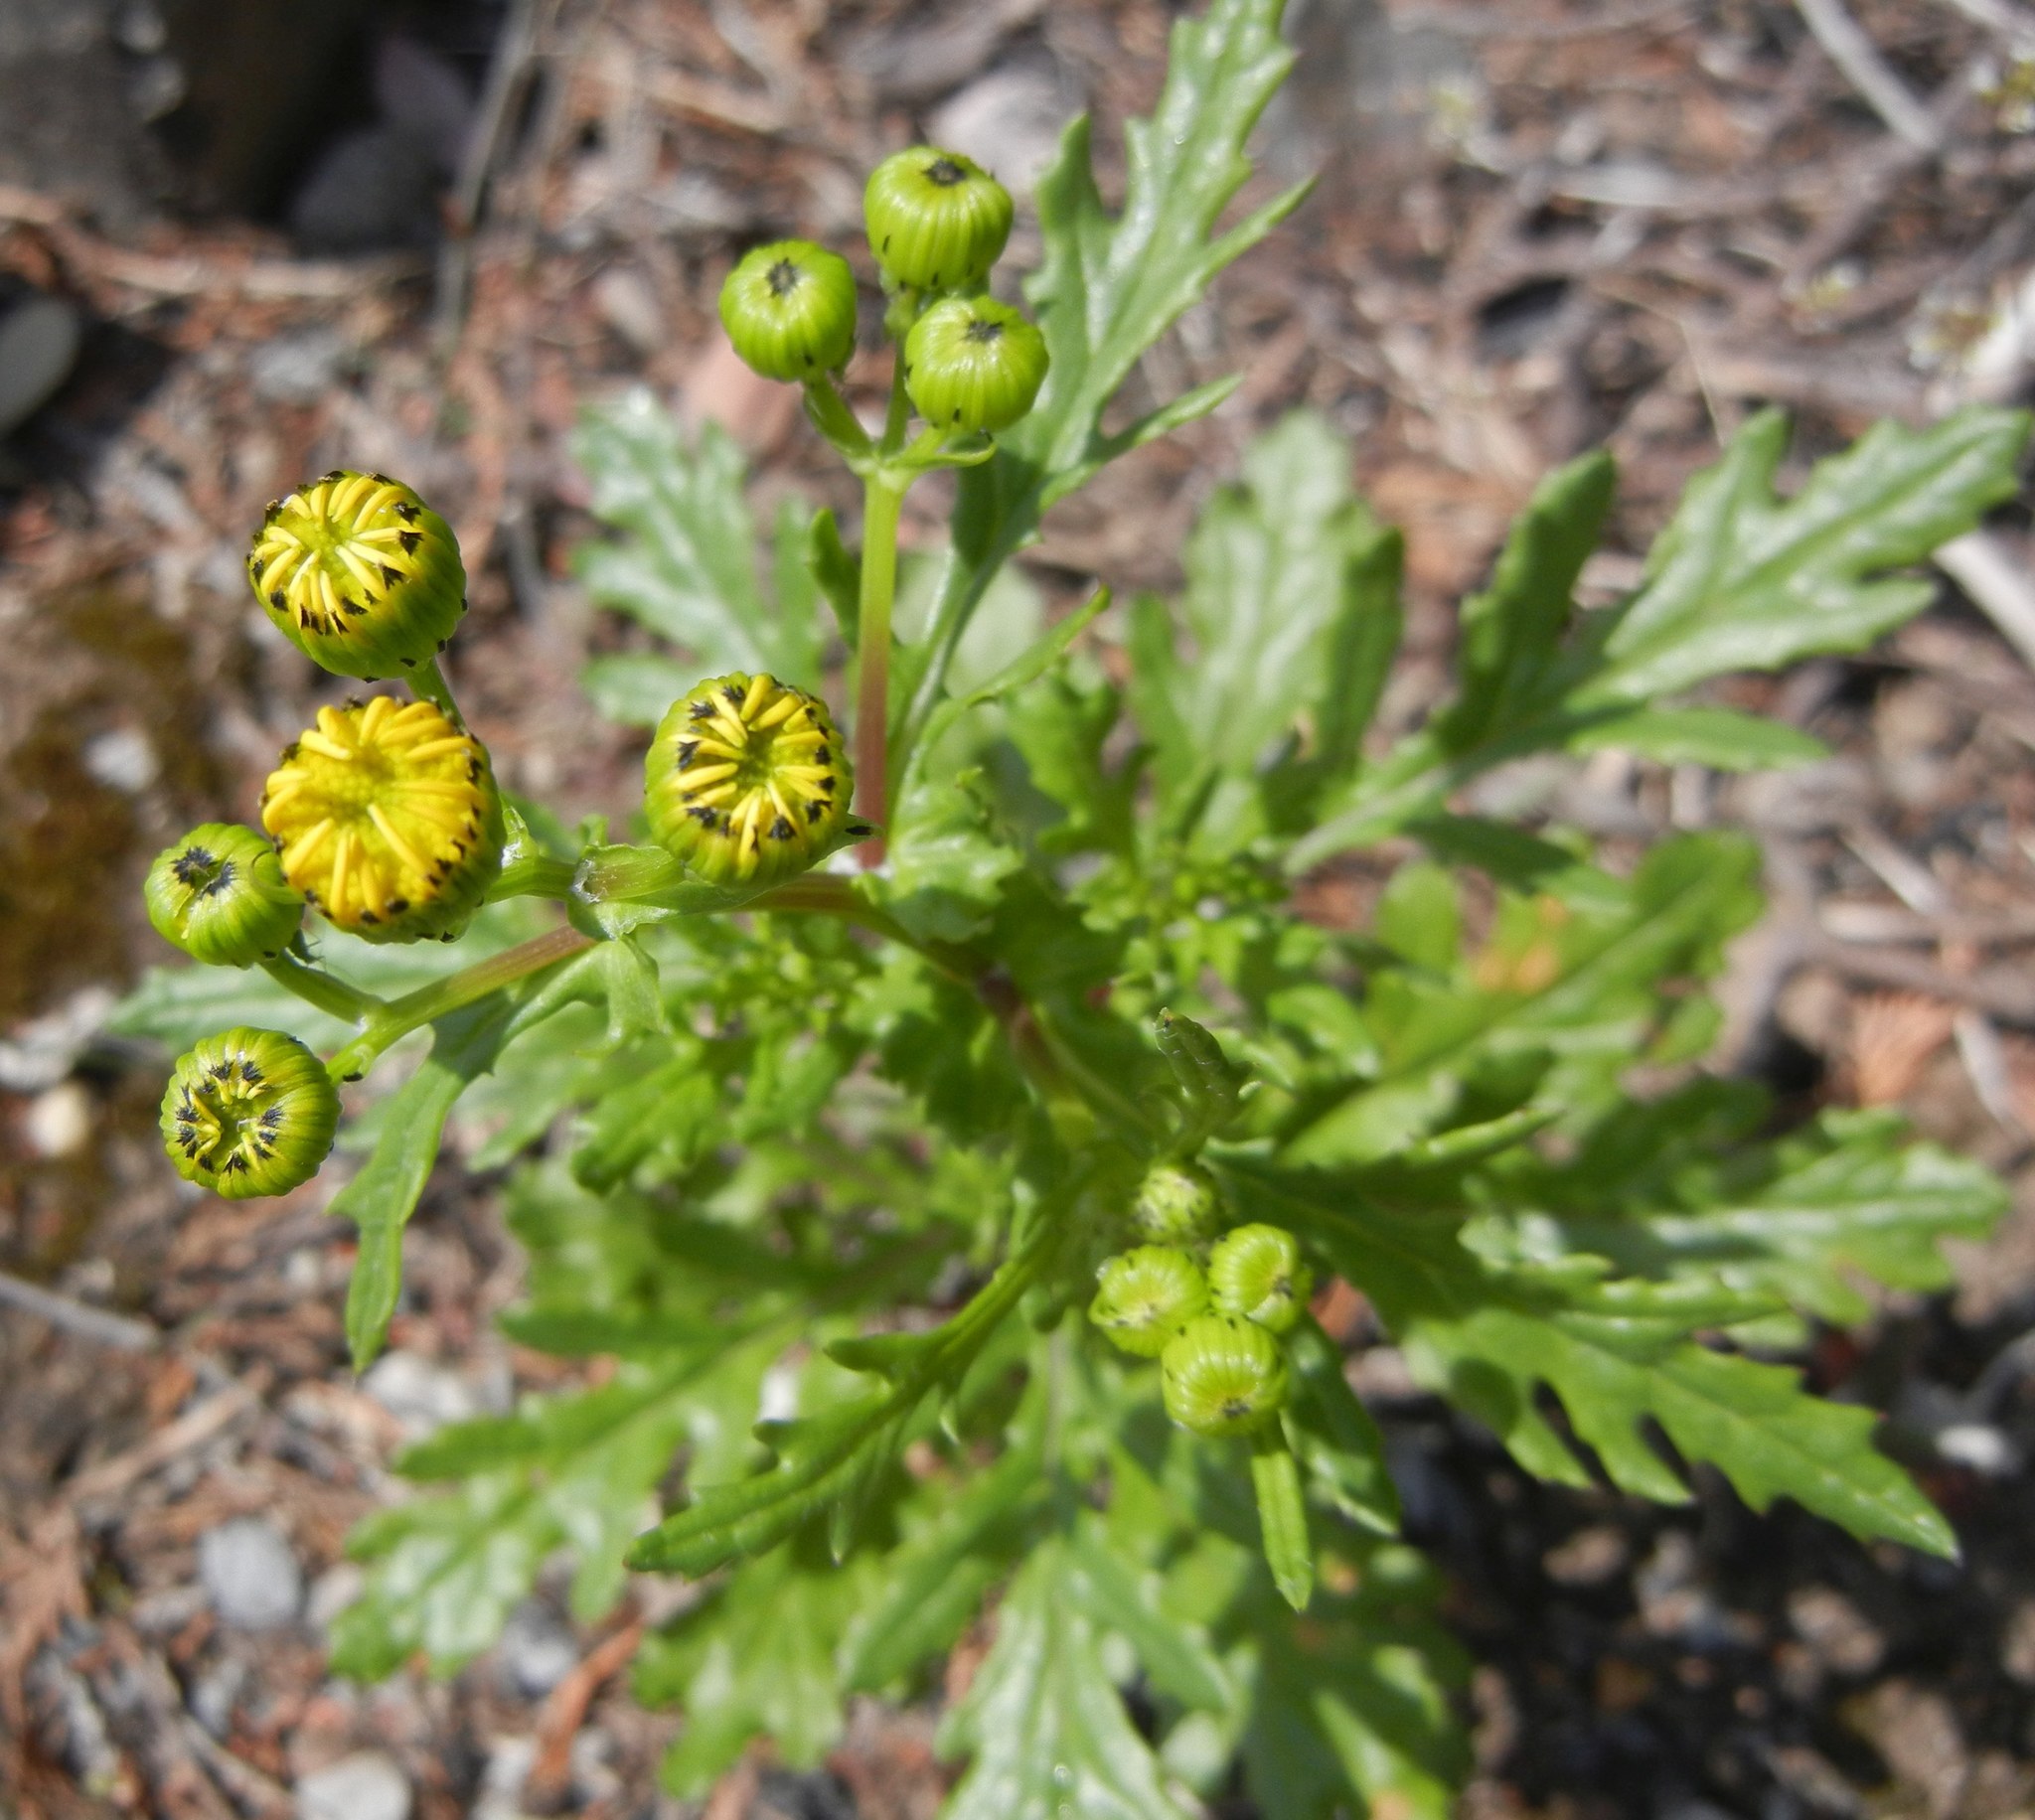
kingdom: Plantae
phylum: Tracheophyta
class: Magnoliopsida
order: Asterales
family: Asteraceae
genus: Senecio
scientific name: Senecio squalidus
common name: Oxford ragwort
